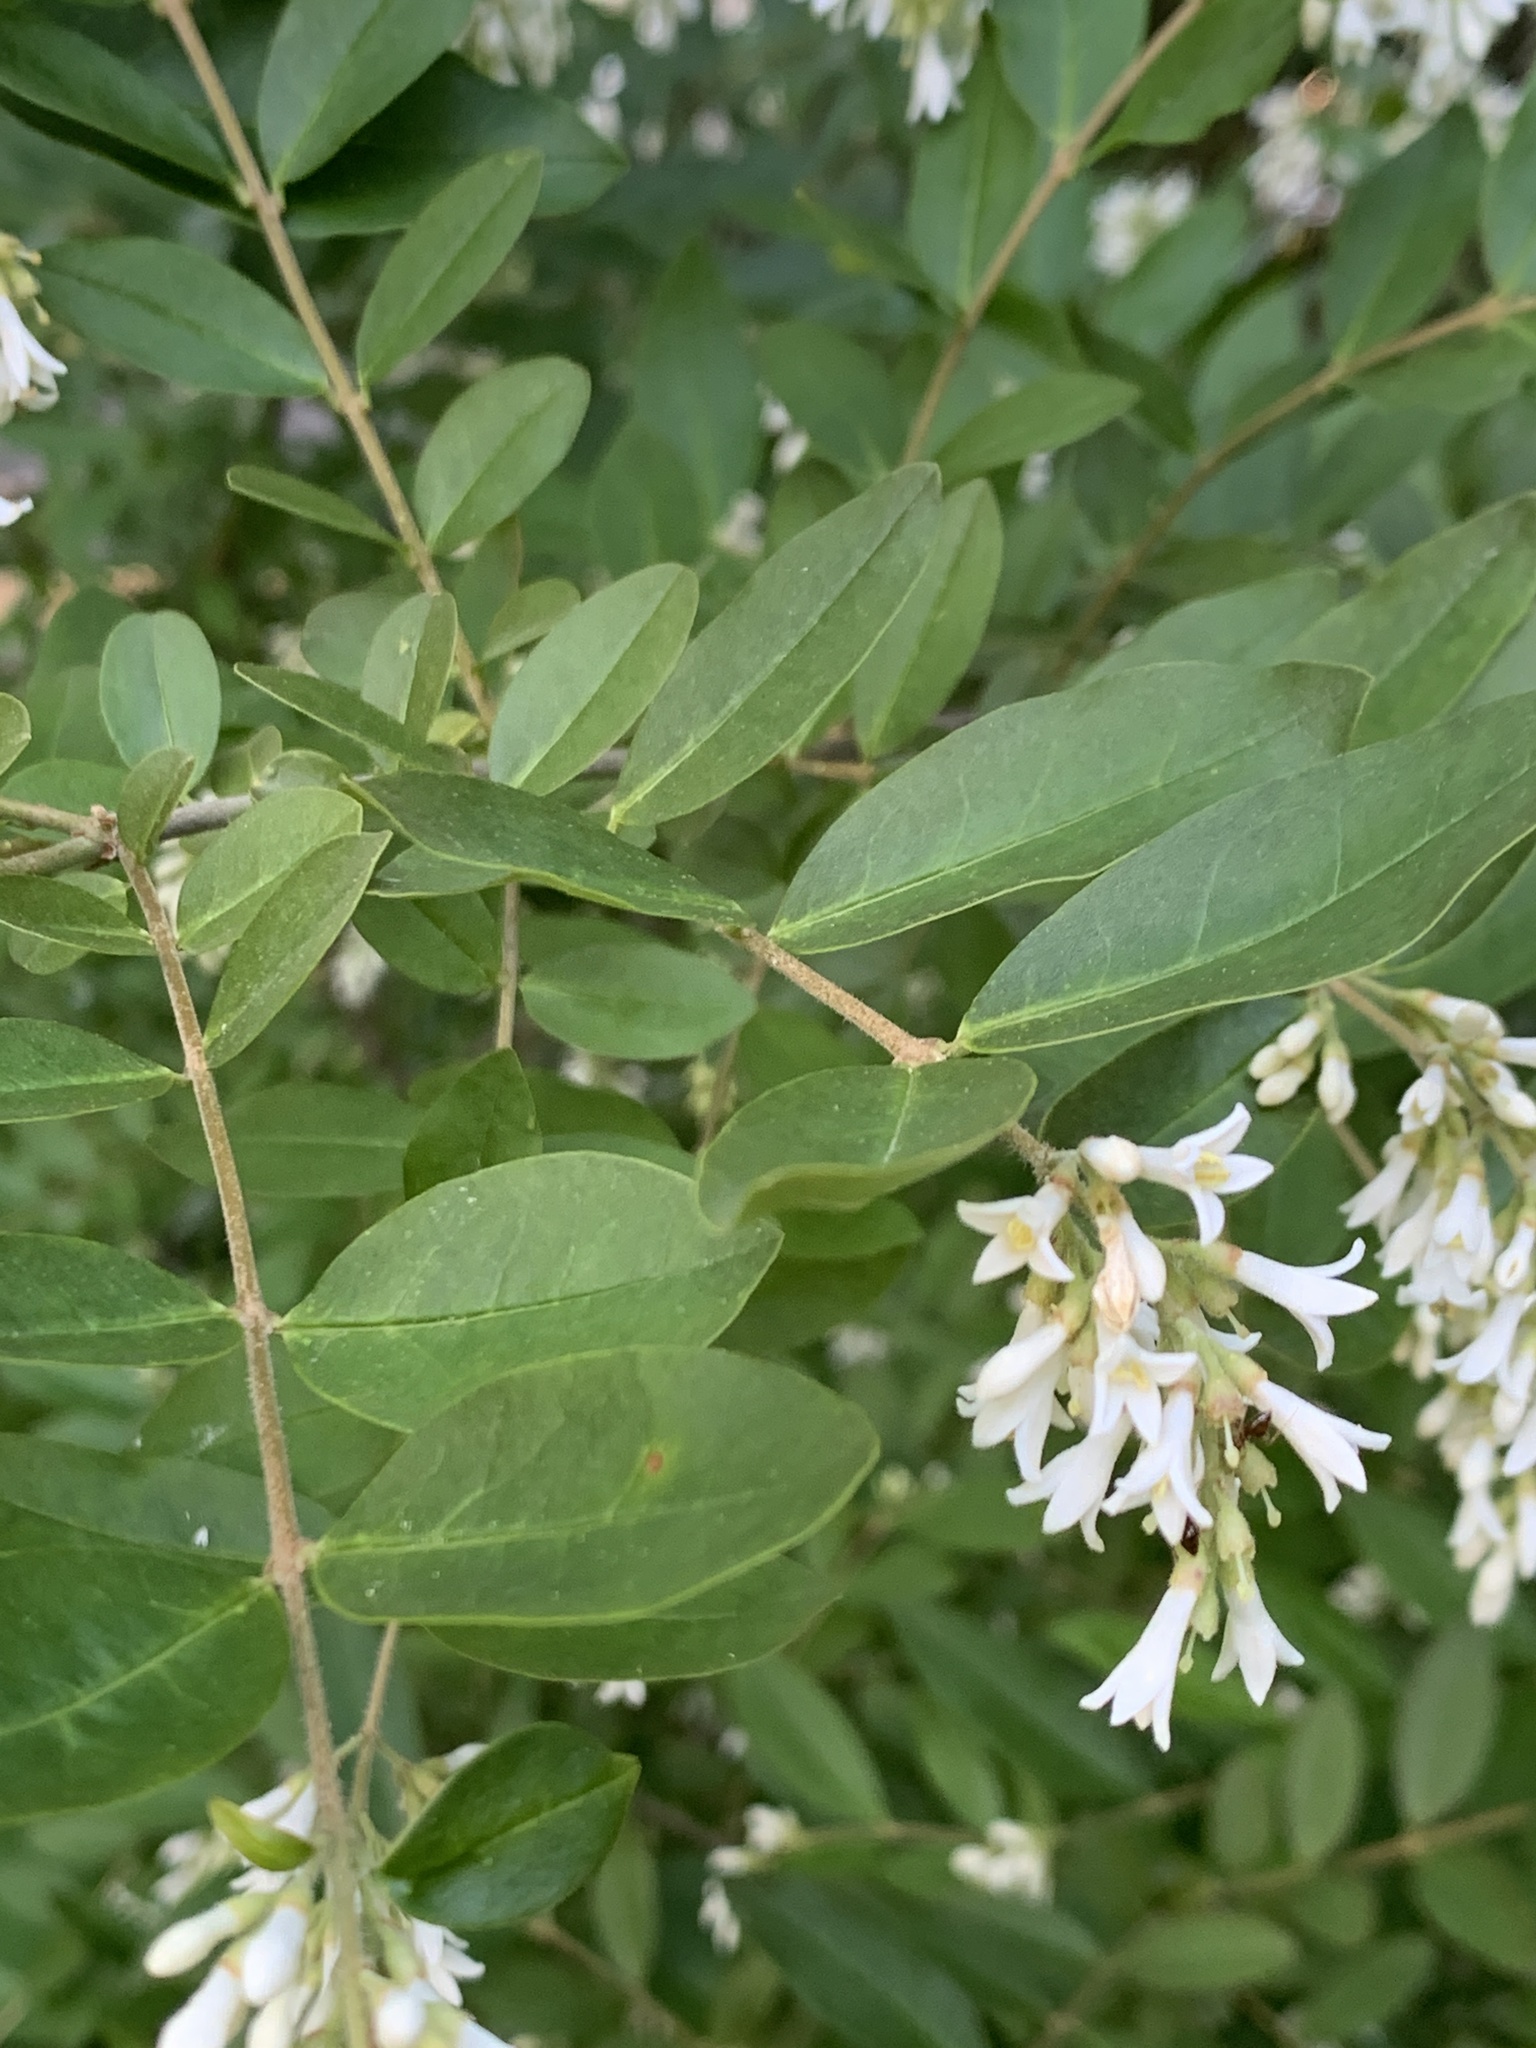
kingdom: Plantae
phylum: Tracheophyta
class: Magnoliopsida
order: Lamiales
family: Oleaceae
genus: Ligustrum
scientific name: Ligustrum obtusifolium
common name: Border privet
